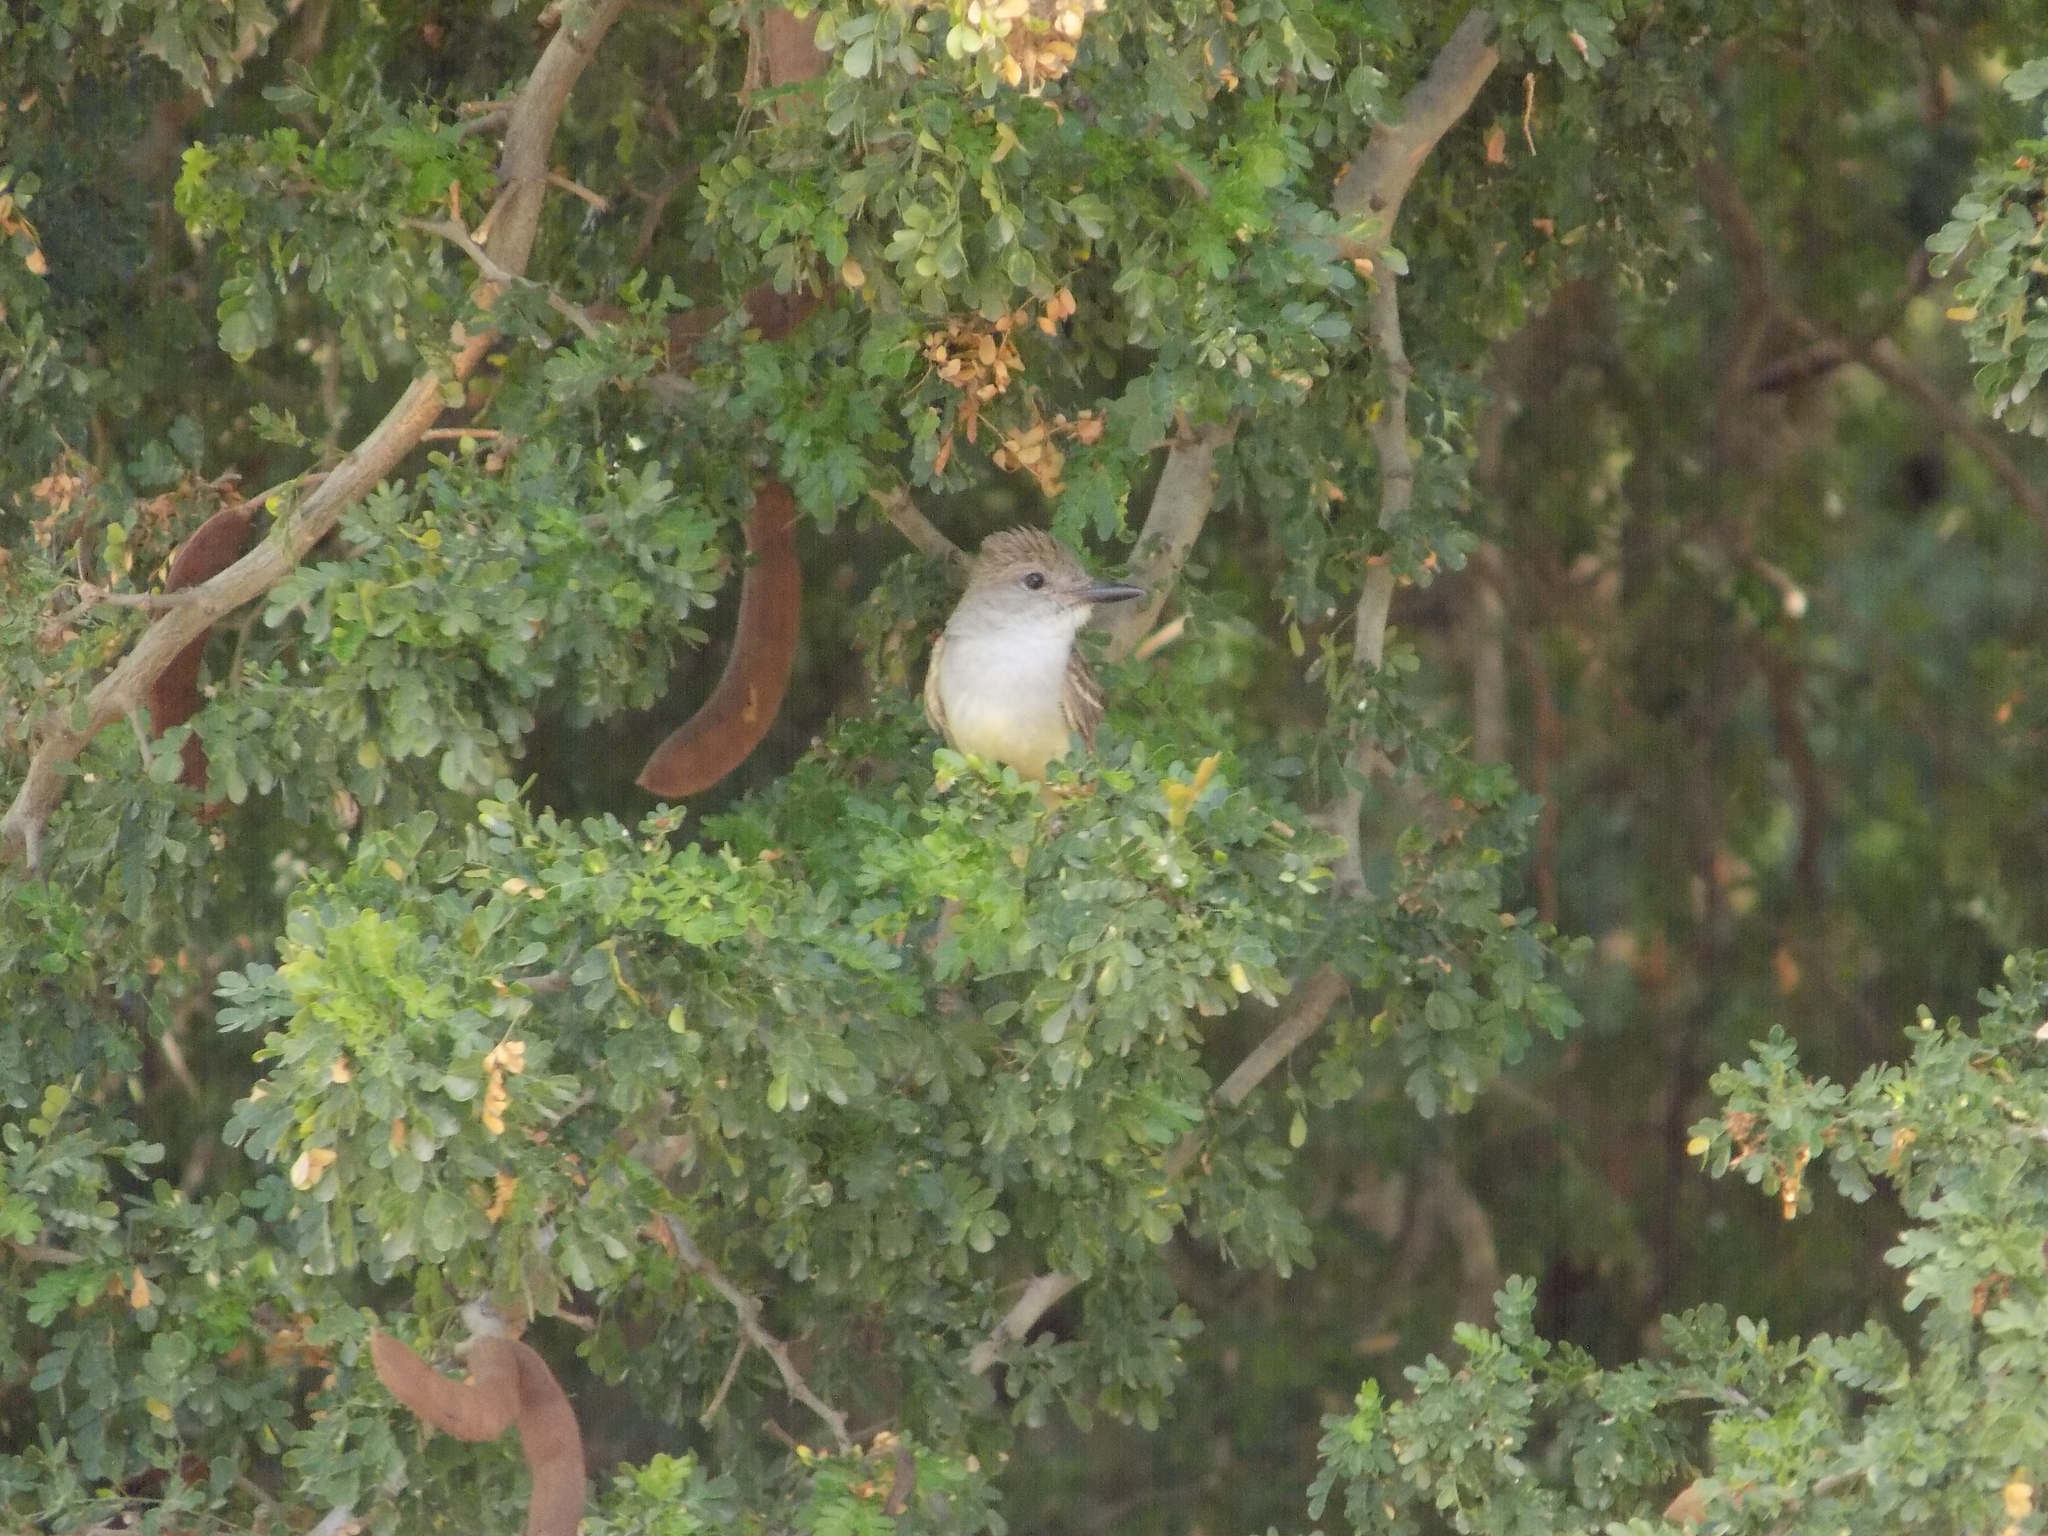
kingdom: Animalia
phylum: Chordata
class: Aves
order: Passeriformes
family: Tyrannidae
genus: Myiarchus
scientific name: Myiarchus tyrannulus
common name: Brown-crested flycatcher
